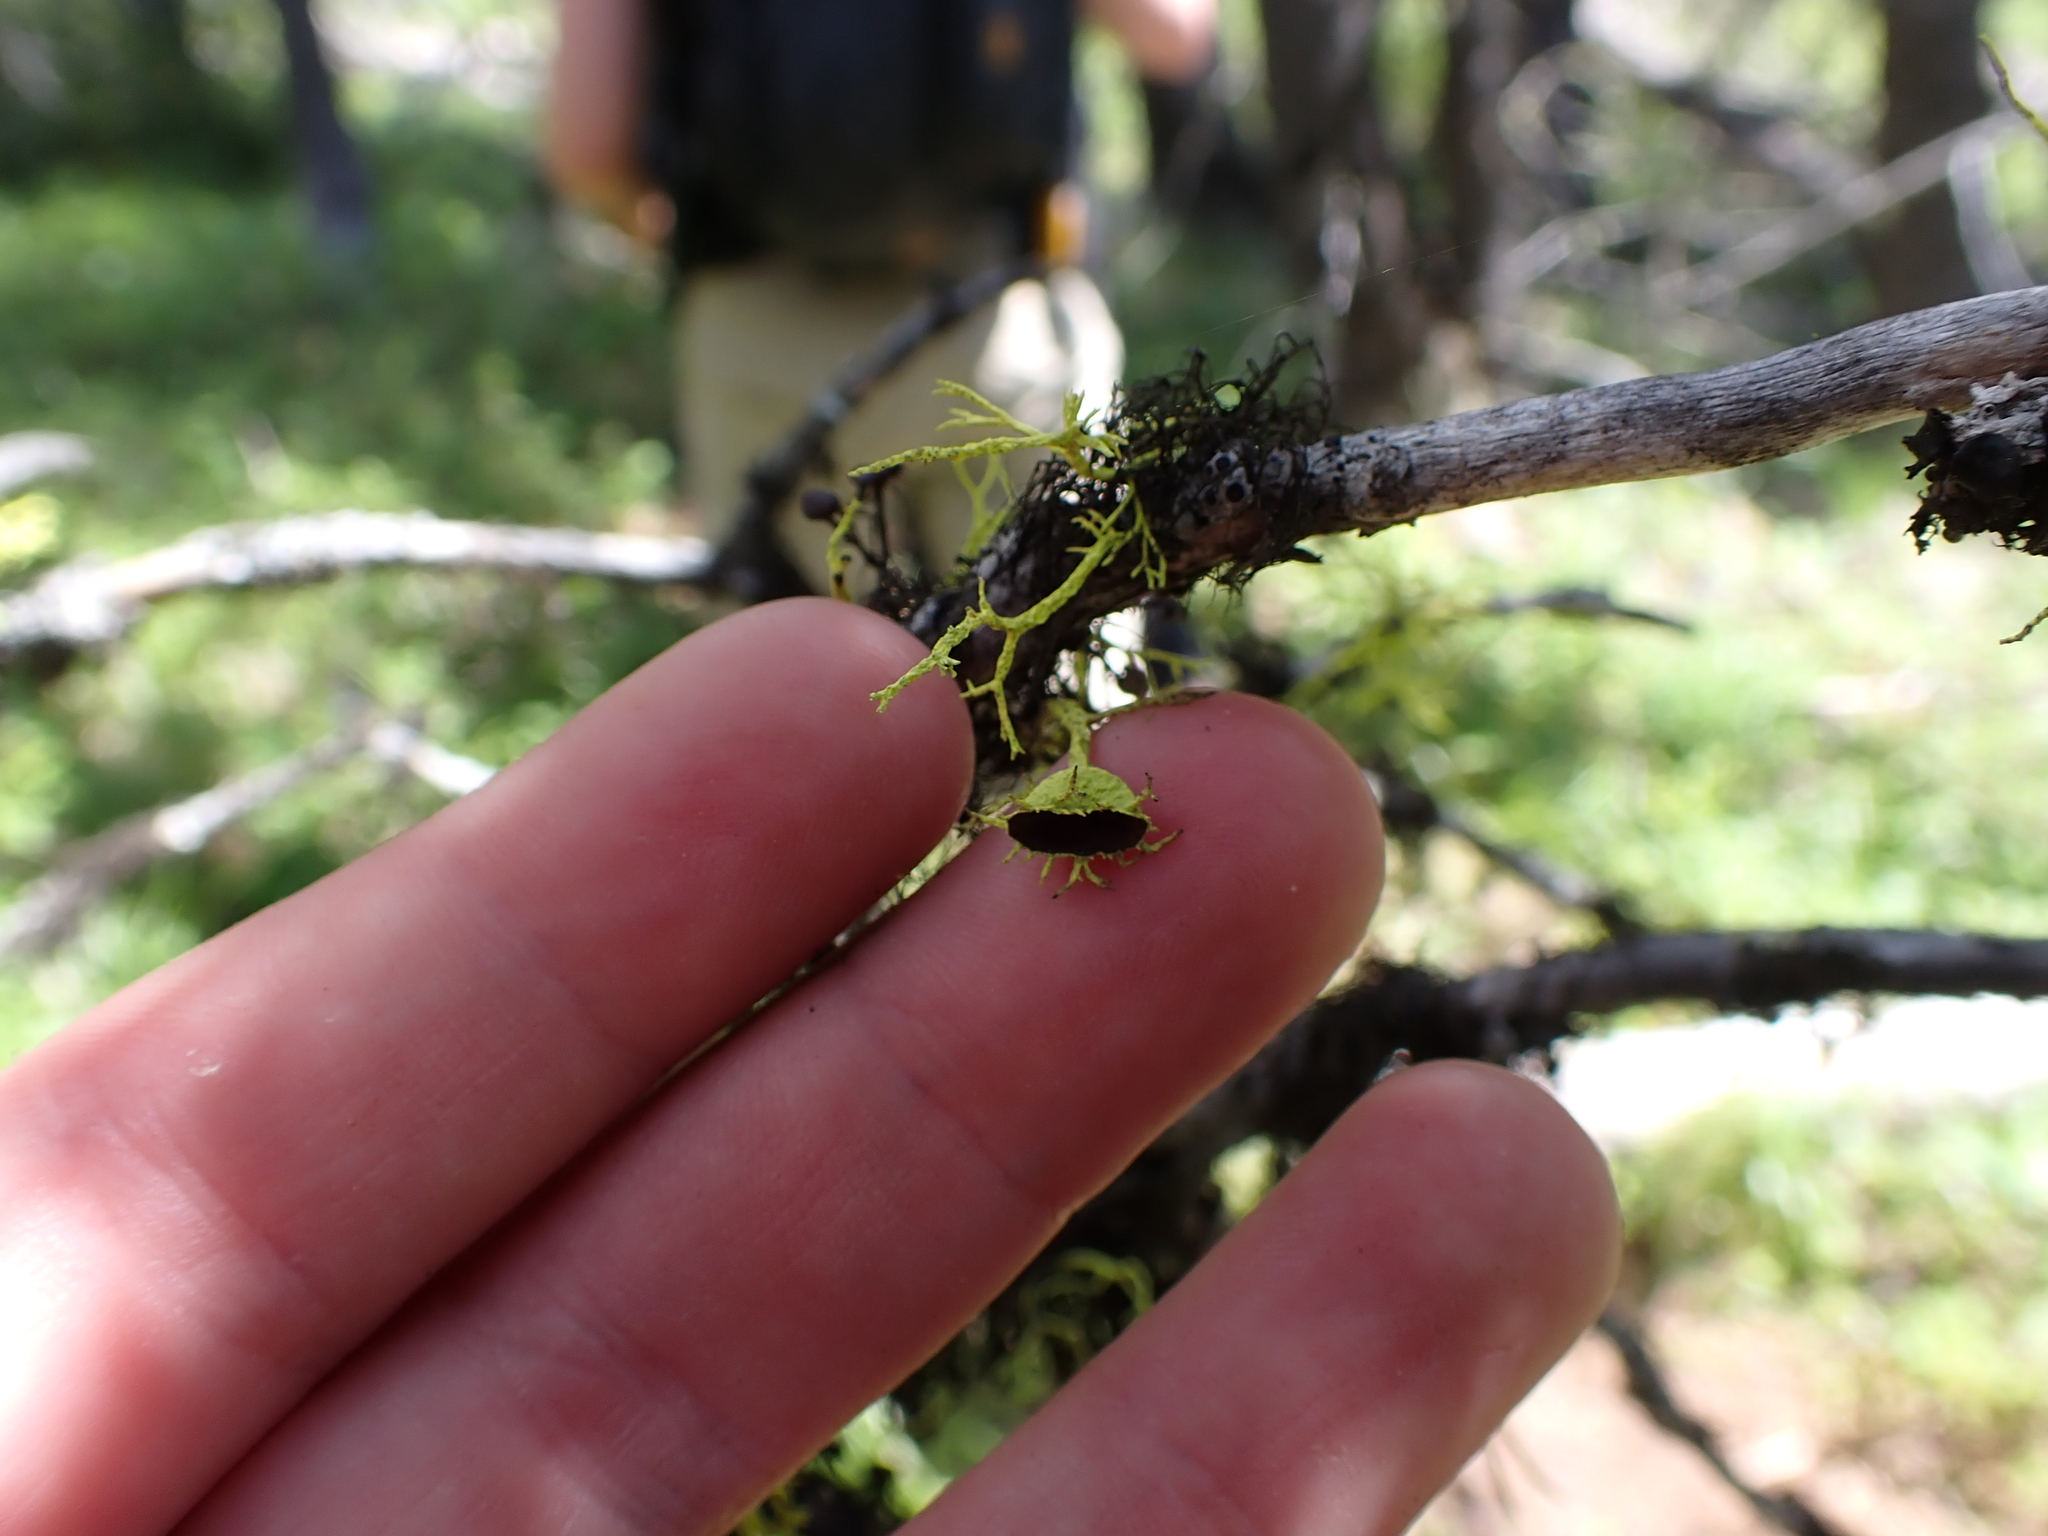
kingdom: Fungi
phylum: Ascomycota
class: Lecanoromycetes
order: Lecanorales
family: Parmeliaceae
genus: Letharia
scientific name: Letharia columbiana
